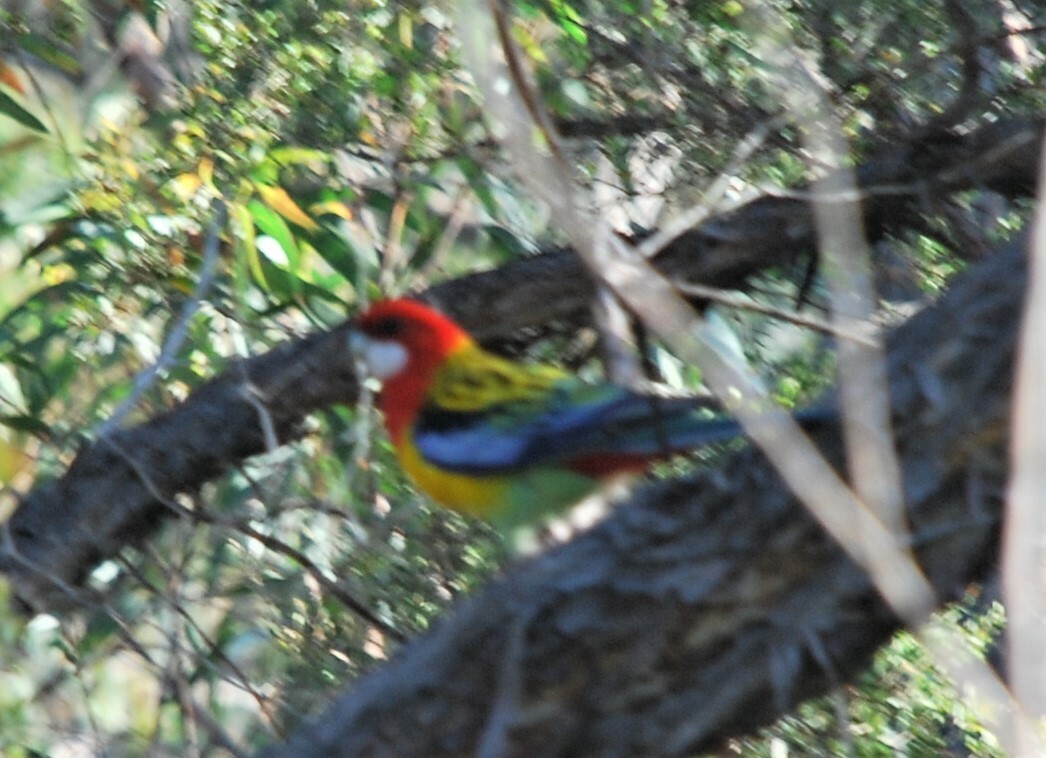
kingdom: Animalia
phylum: Chordata
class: Aves
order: Psittaciformes
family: Psittacidae
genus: Platycercus
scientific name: Platycercus eximius
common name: Eastern rosella
